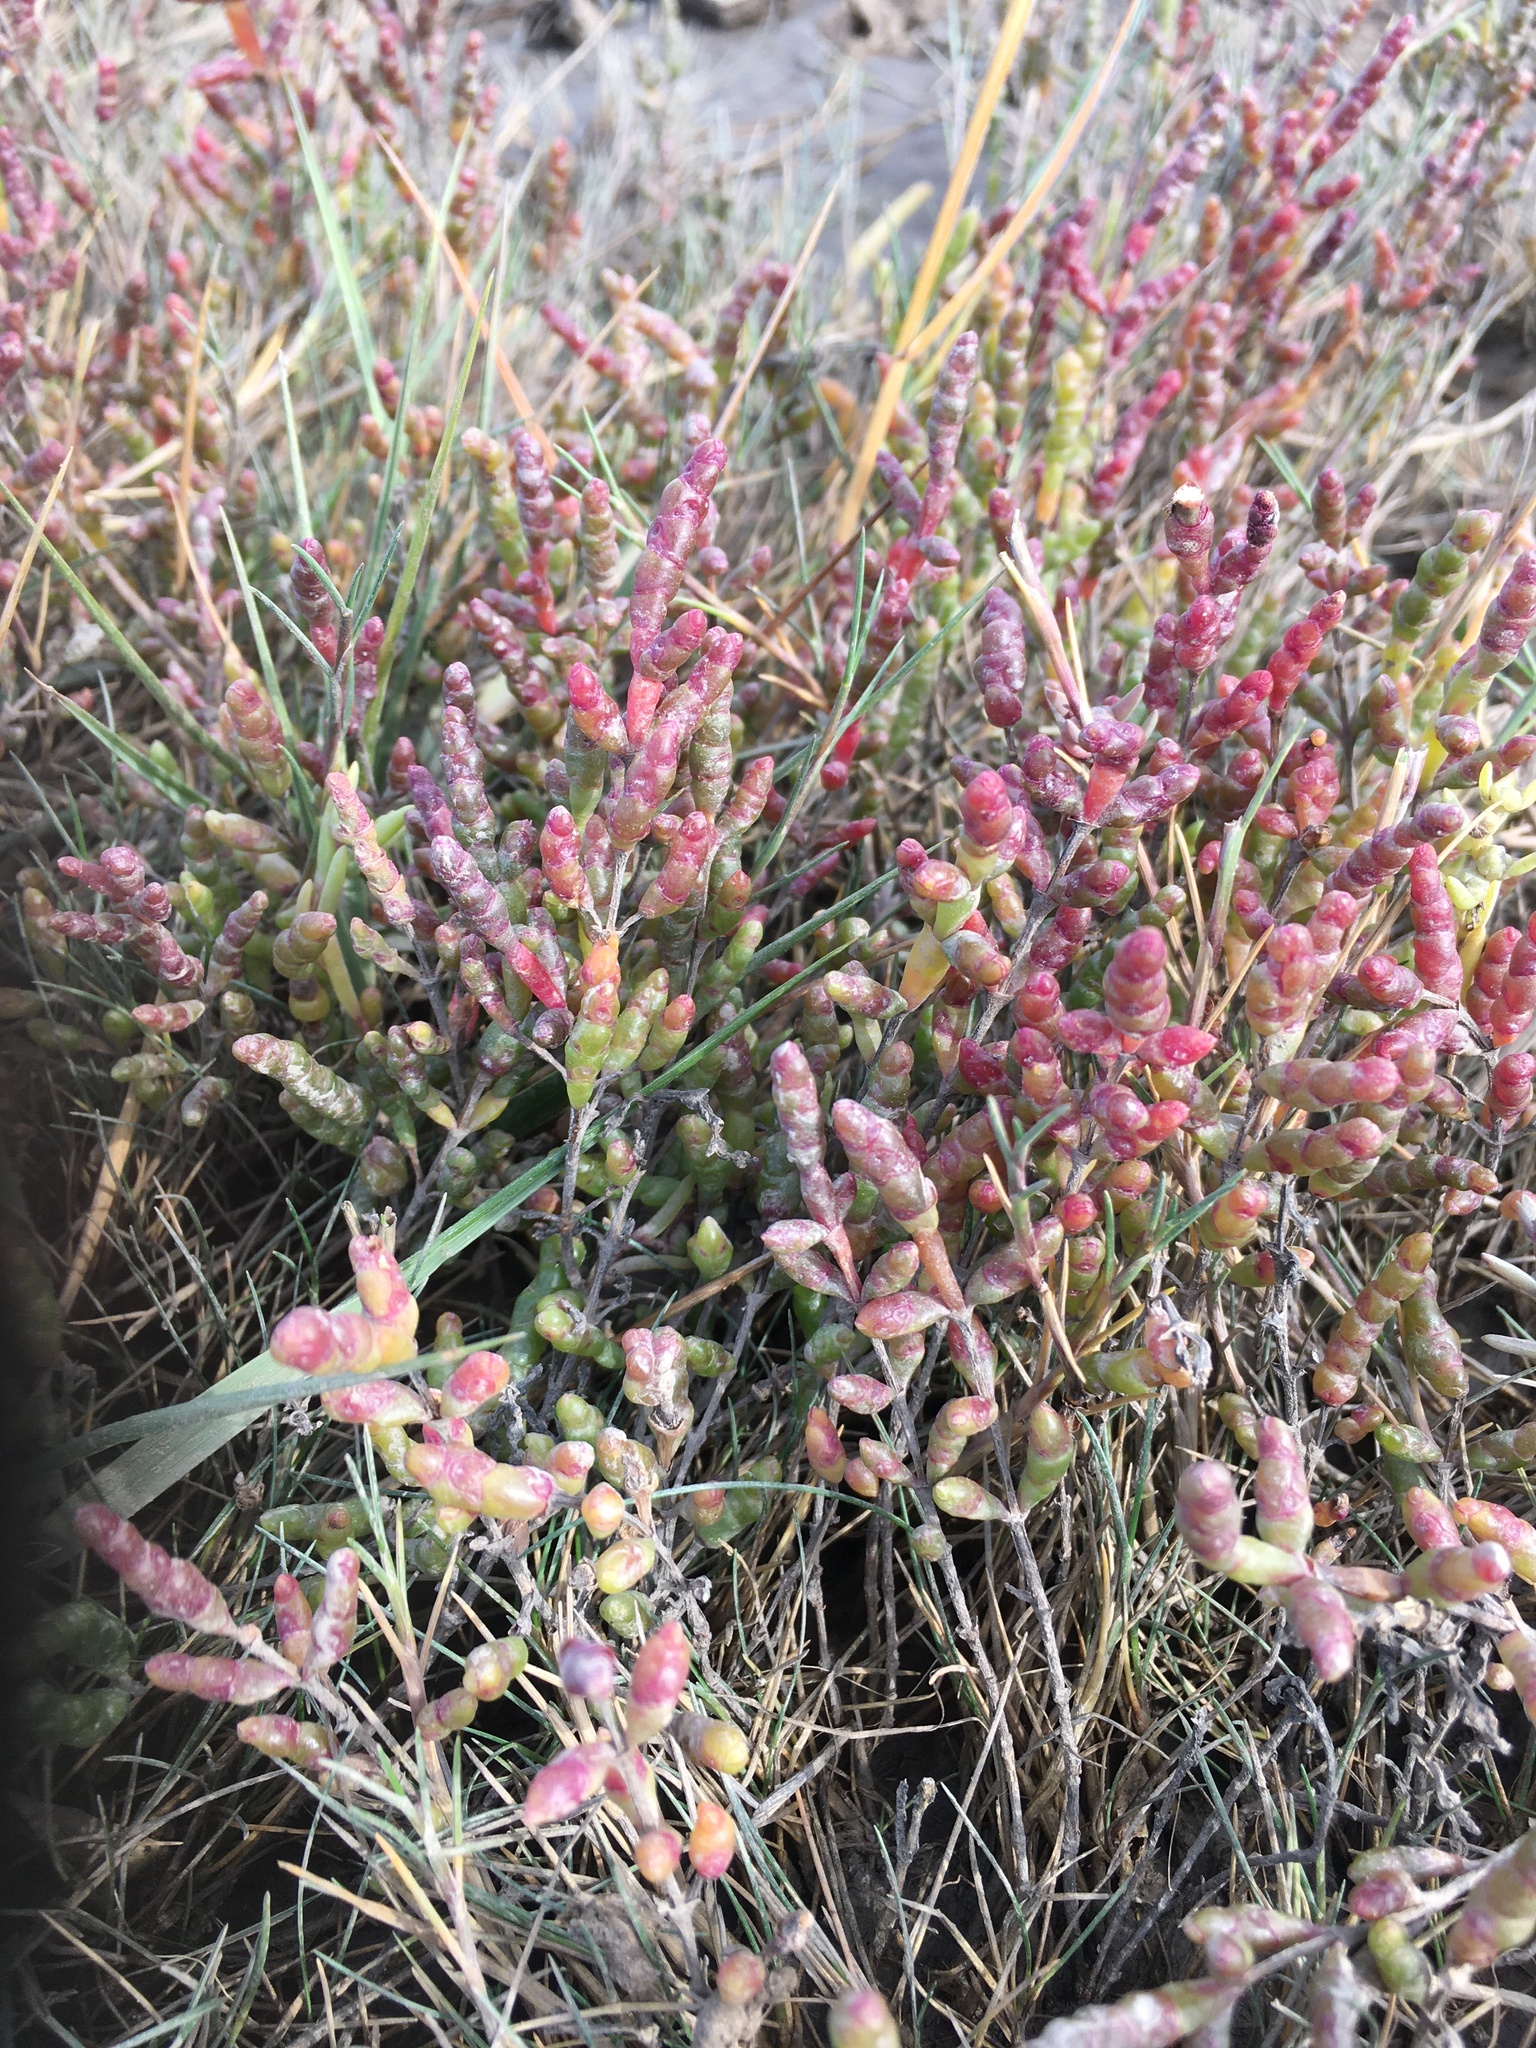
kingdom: Plantae
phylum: Tracheophyta
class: Magnoliopsida
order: Caryophyllales
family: Amaranthaceae
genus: Salicornia
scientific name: Salicornia europaea
